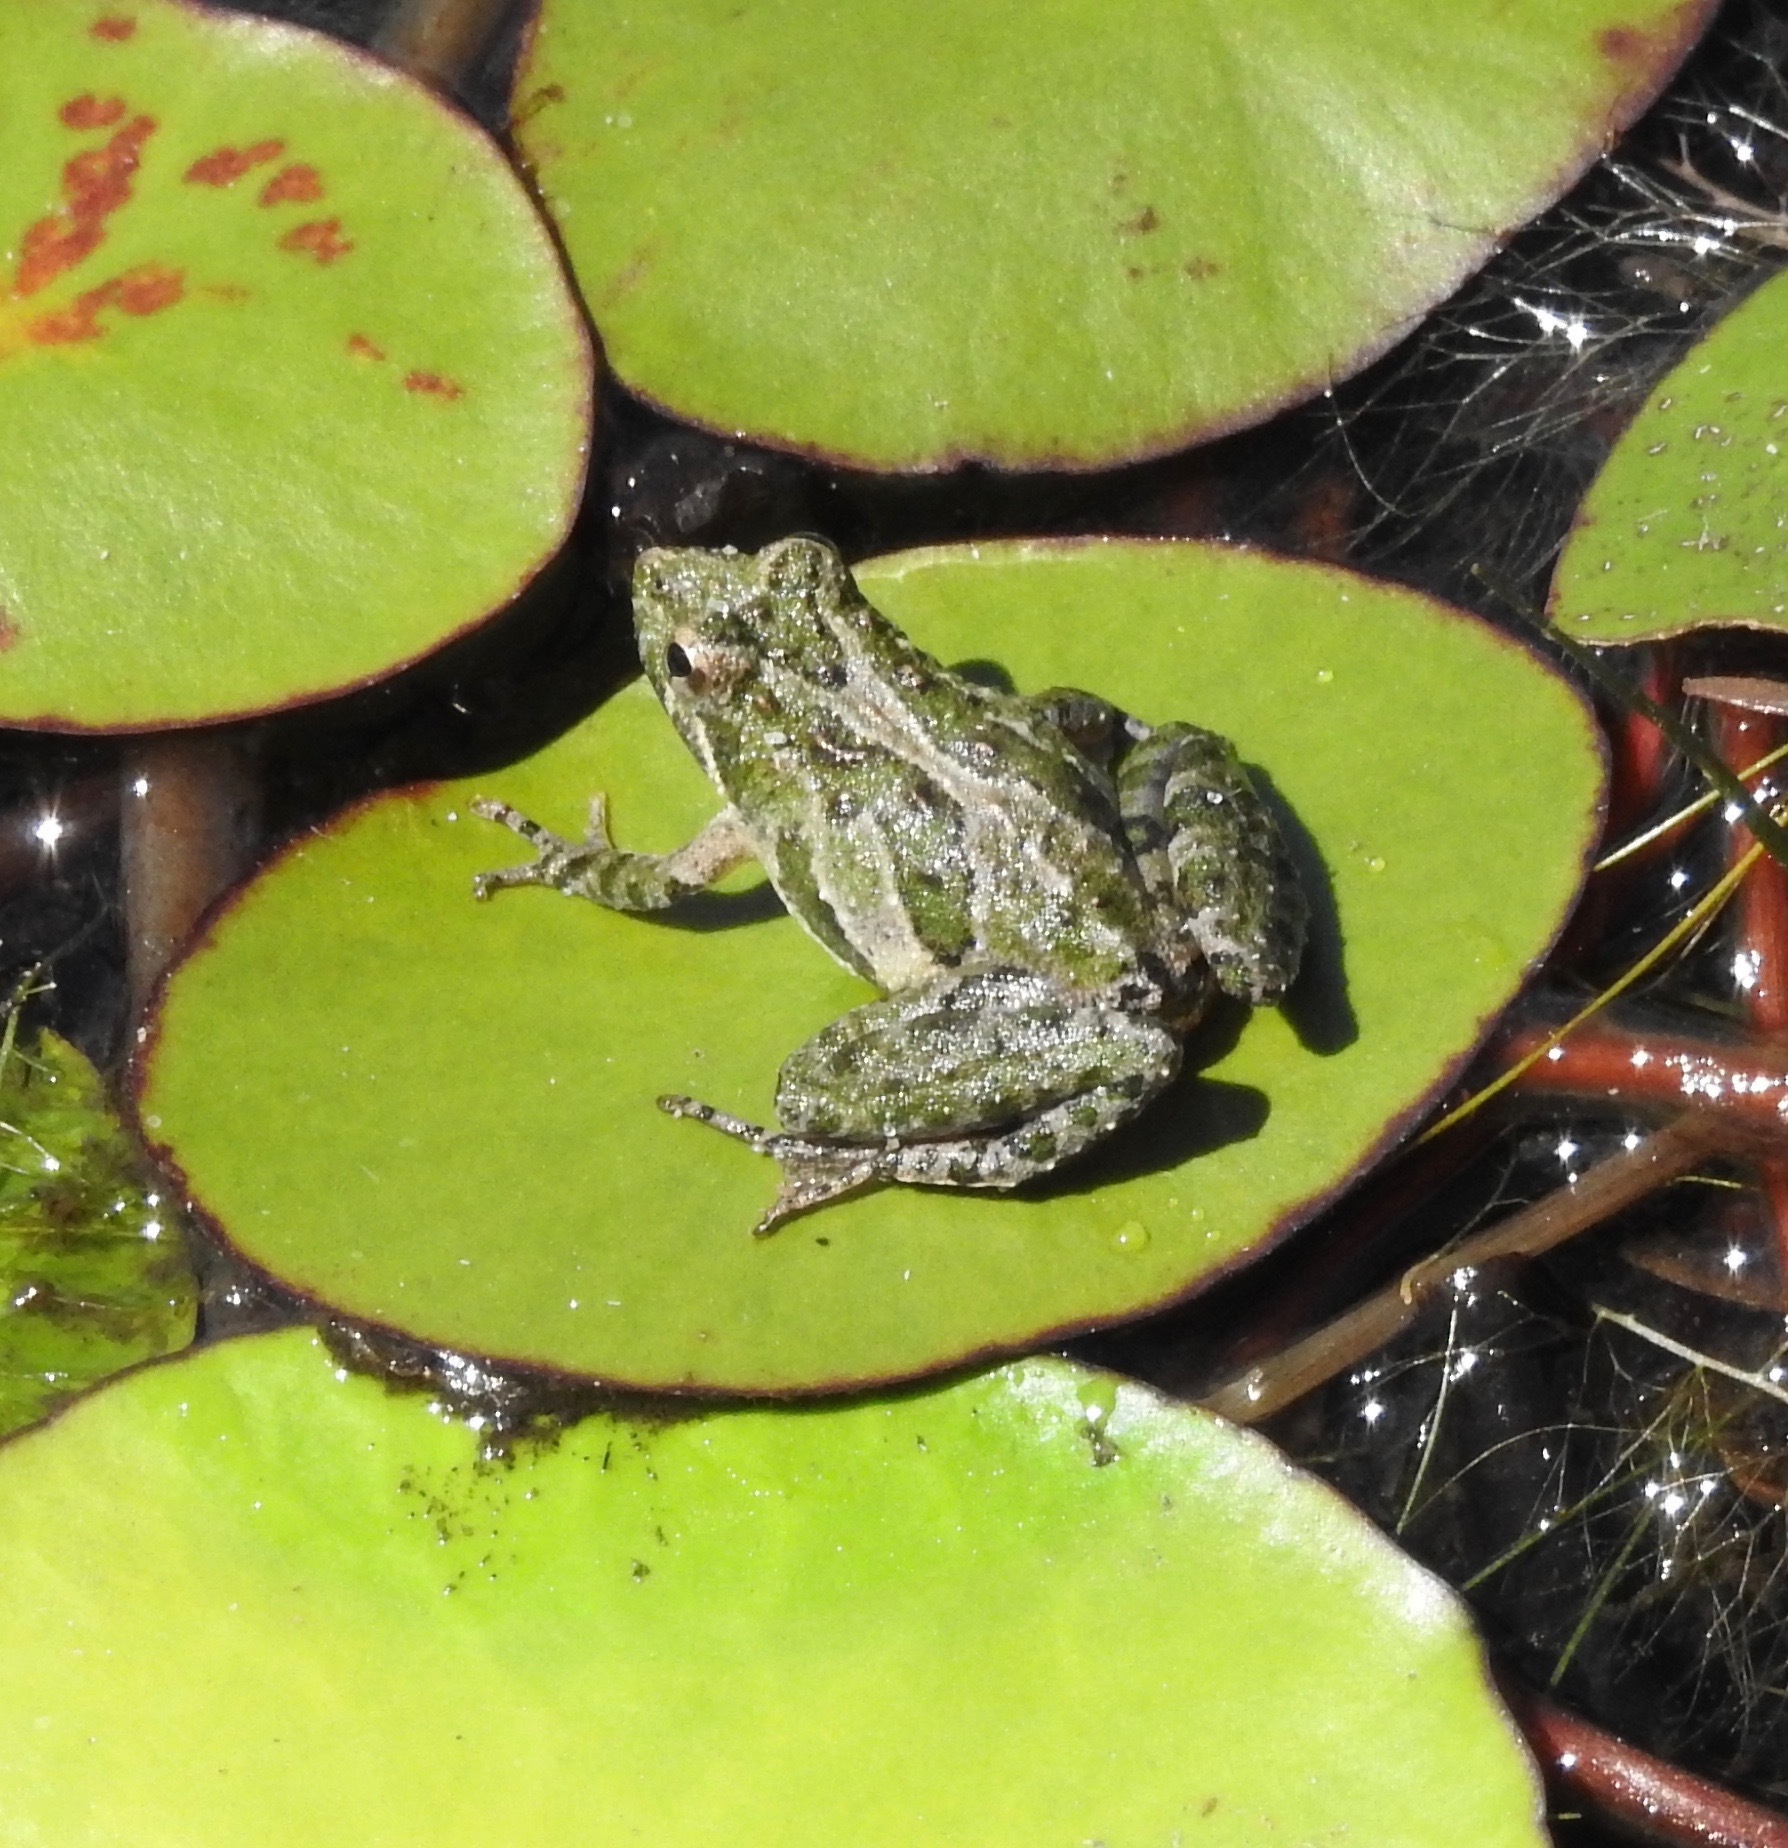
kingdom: Animalia
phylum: Chordata
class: Amphibia
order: Anura
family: Hylidae
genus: Acris
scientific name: Acris gryllus
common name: Southern cricket frog
